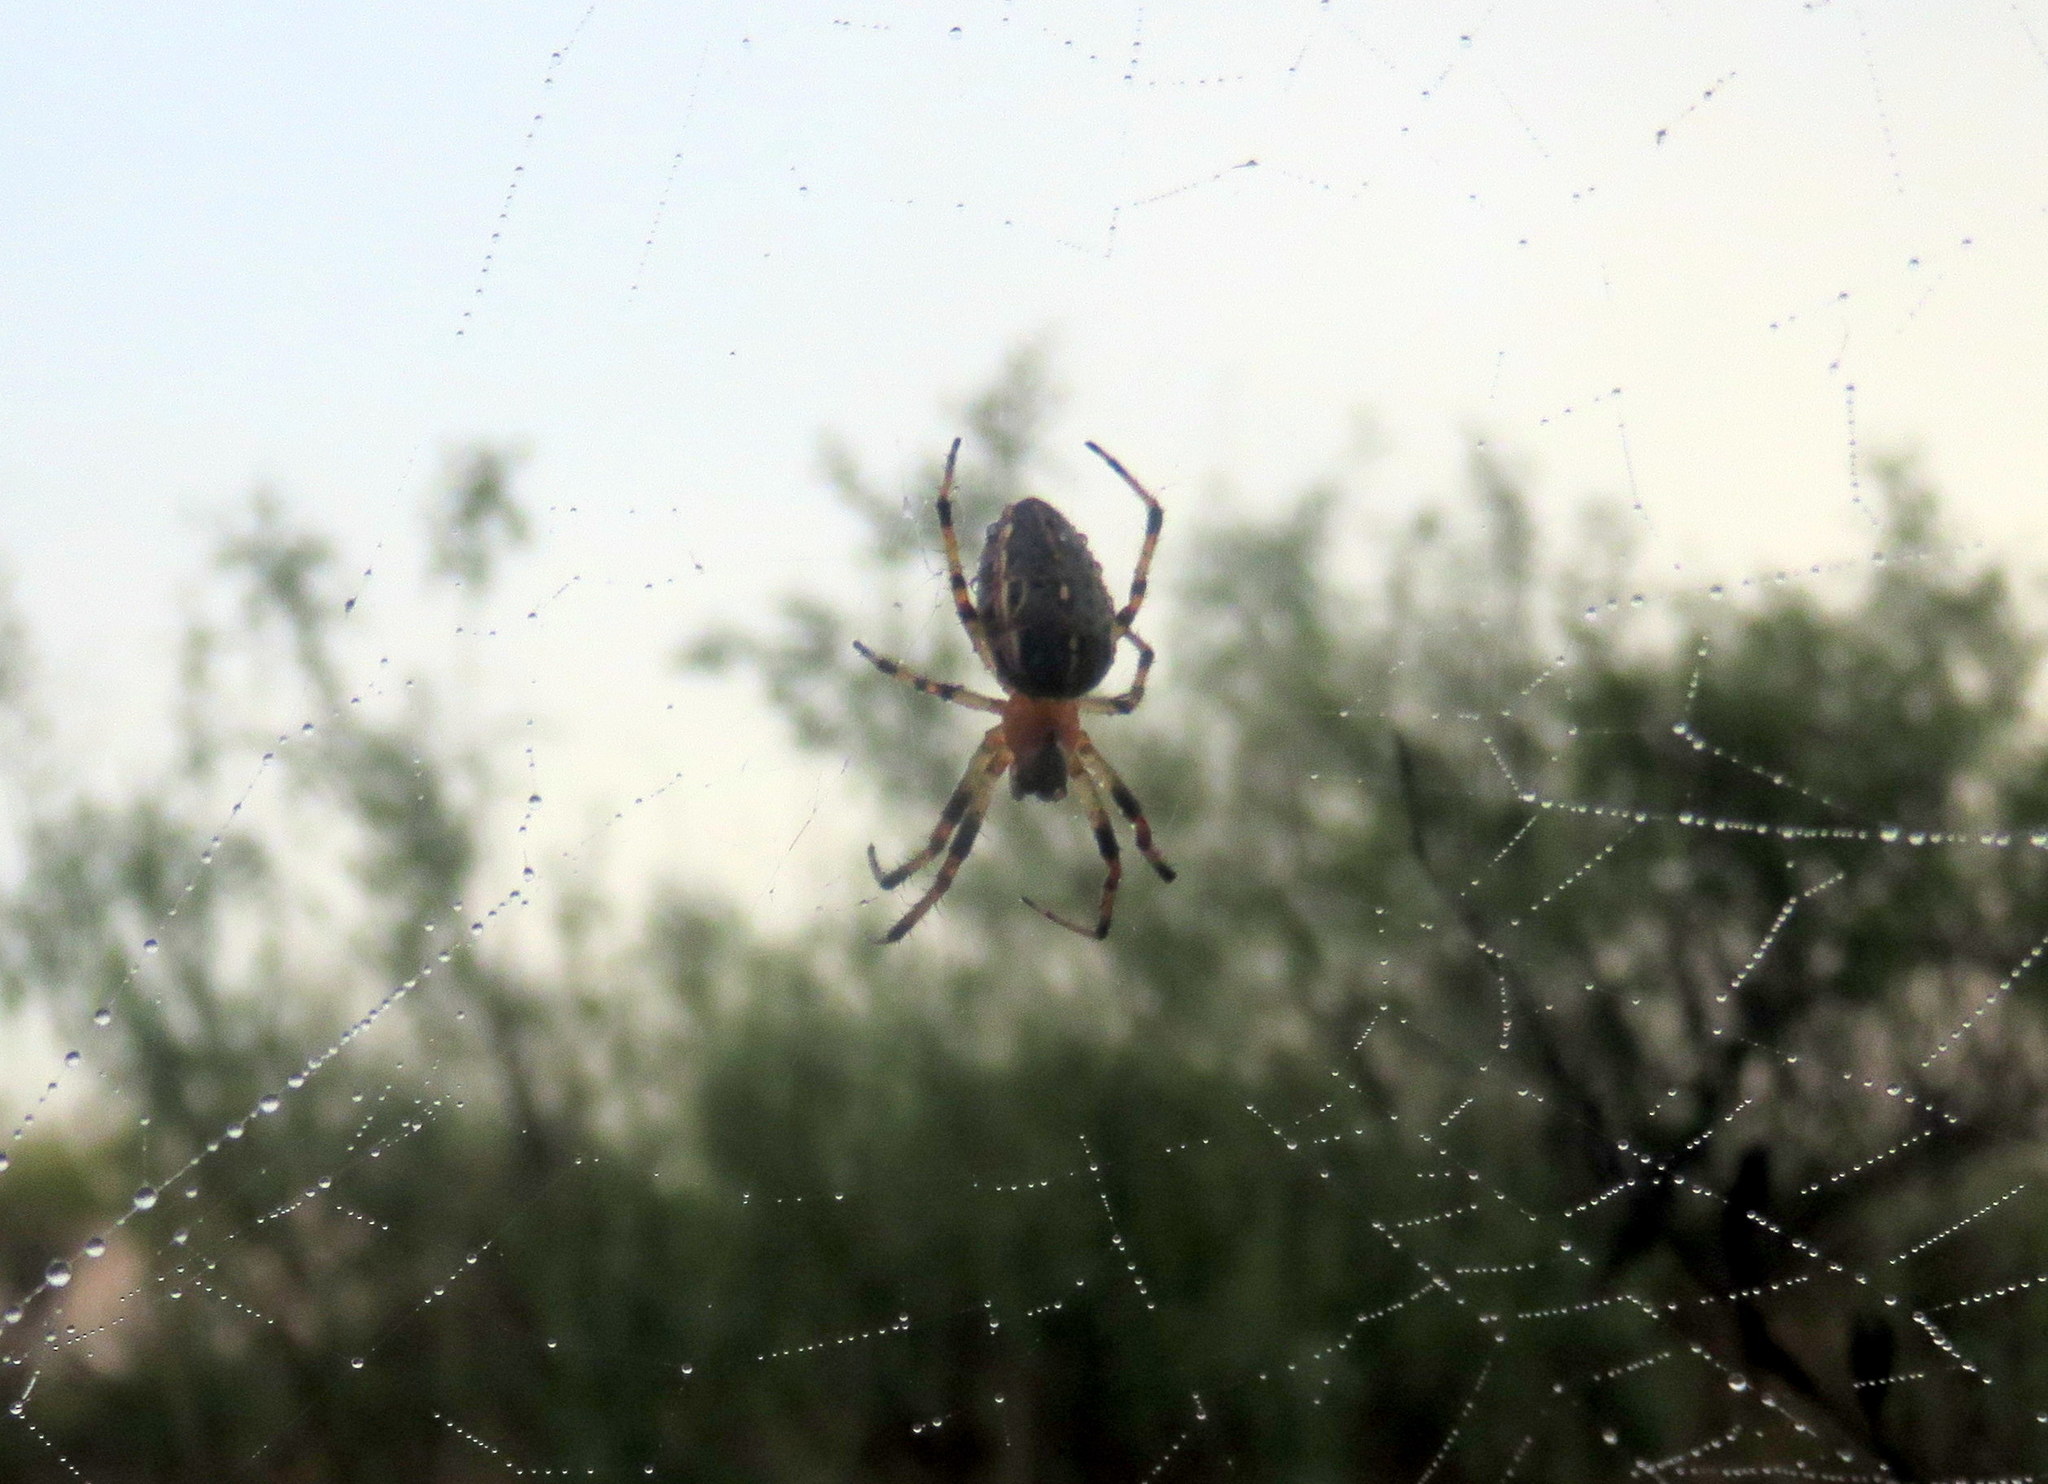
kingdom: Animalia
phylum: Arthropoda
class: Arachnida
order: Araneae
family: Araneidae
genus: Alpaida
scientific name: Alpaida veniliae
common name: Orb weavers
